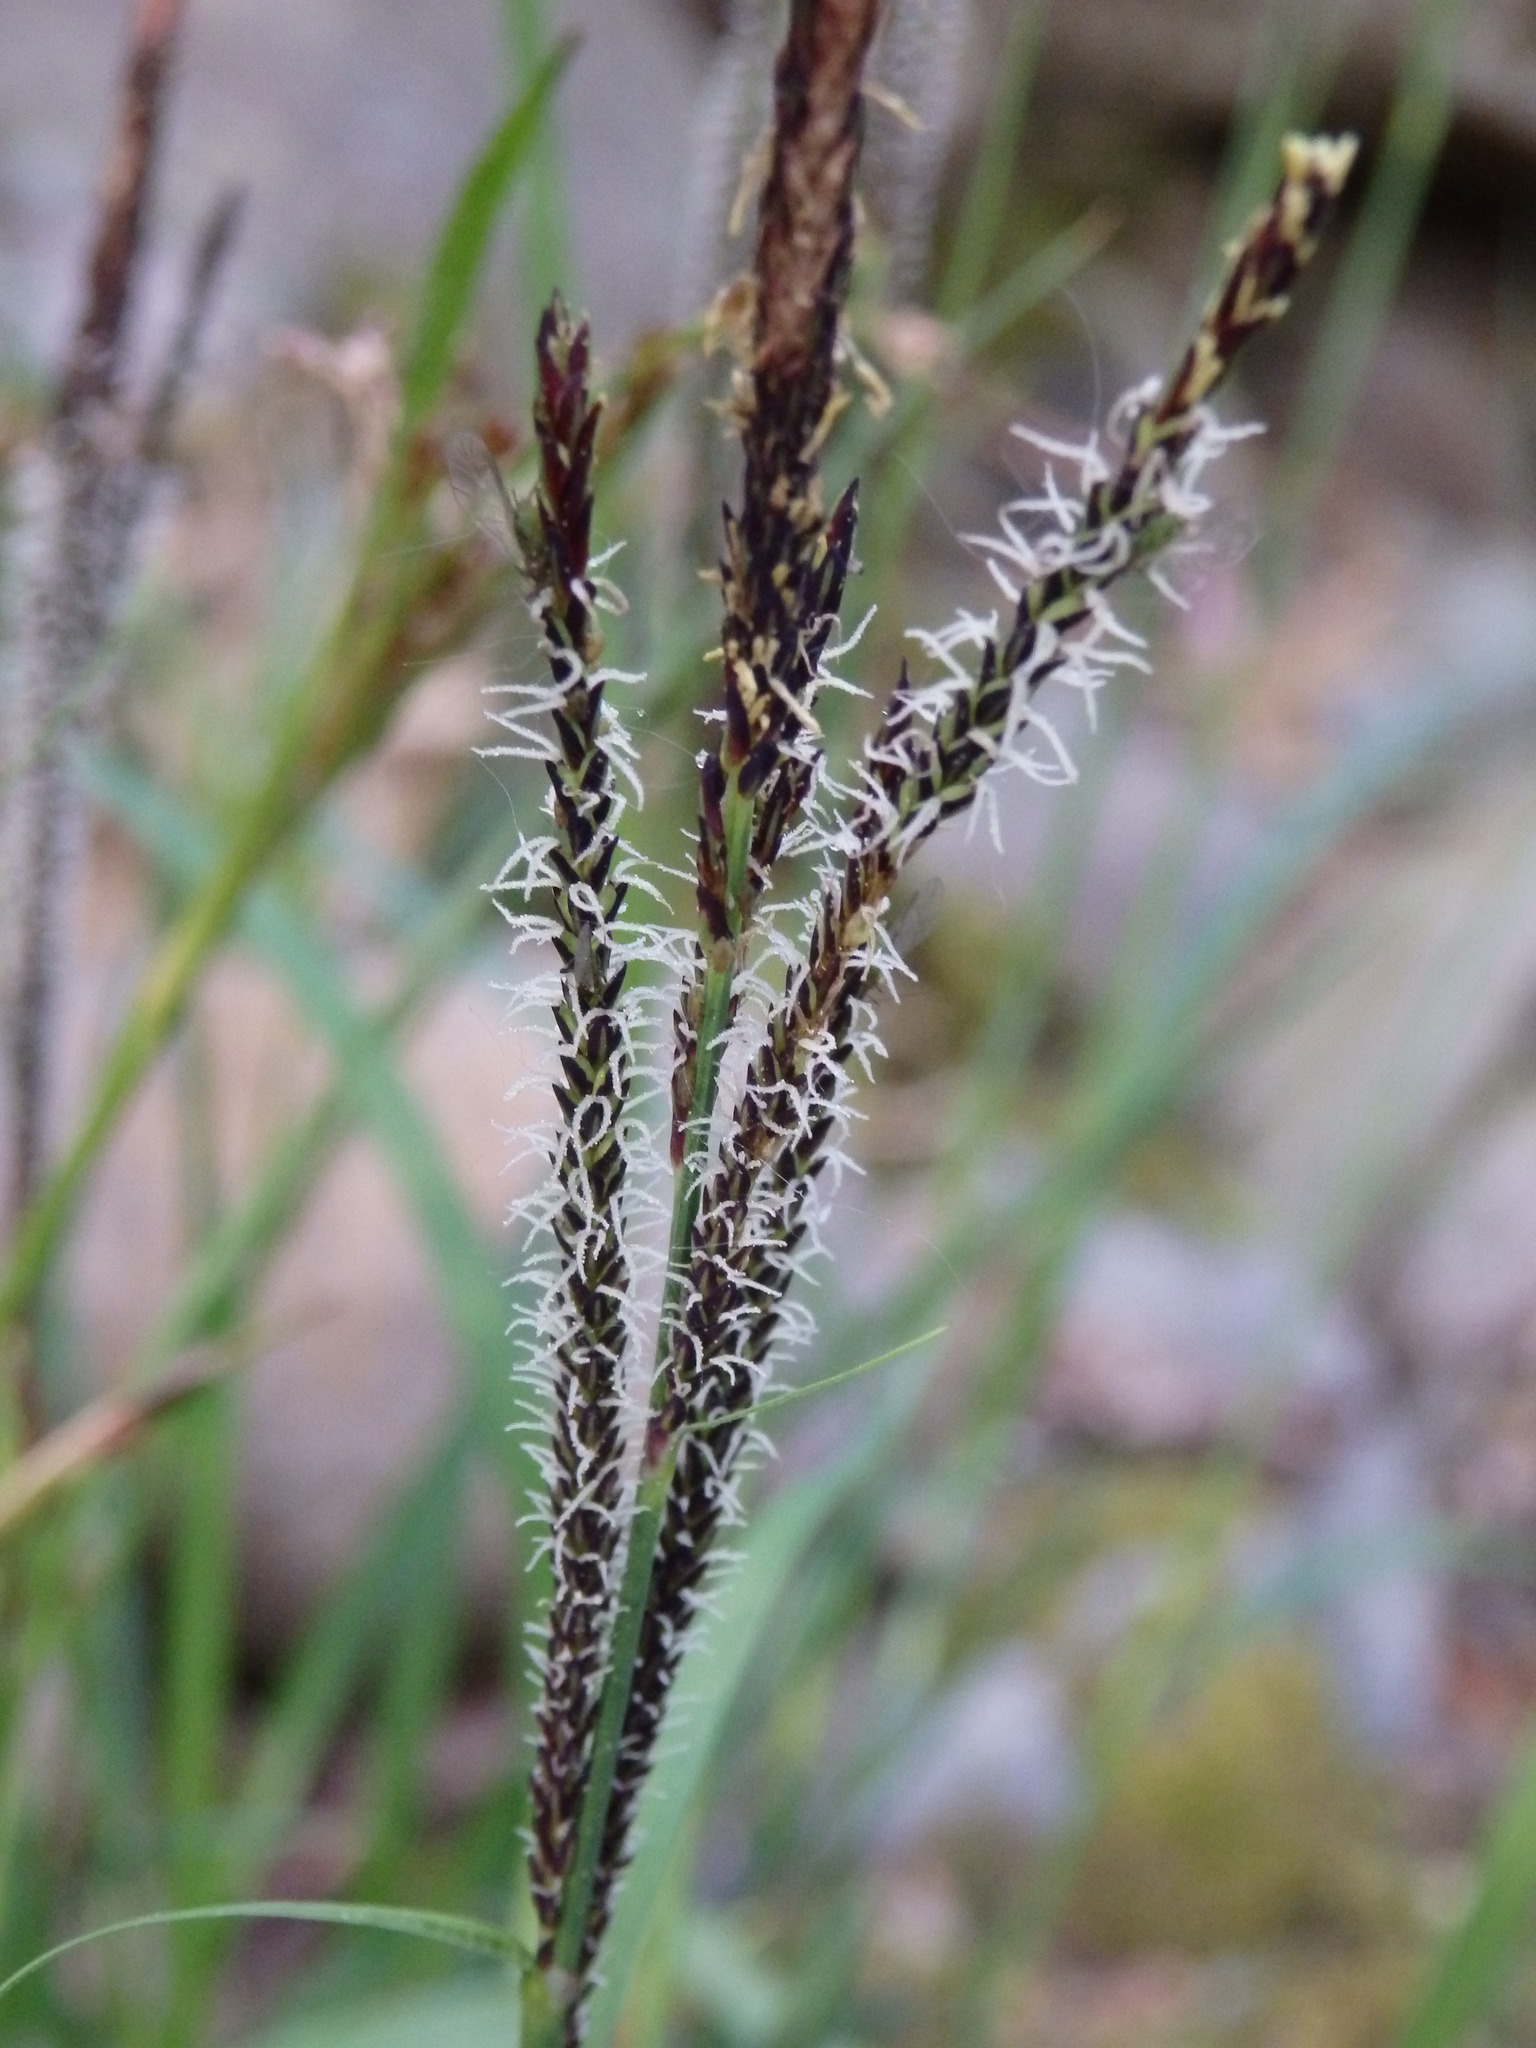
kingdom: Plantae
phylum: Tracheophyta
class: Liliopsida
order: Poales
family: Cyperaceae
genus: Carex
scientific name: Carex flacca
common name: Glaucous sedge
